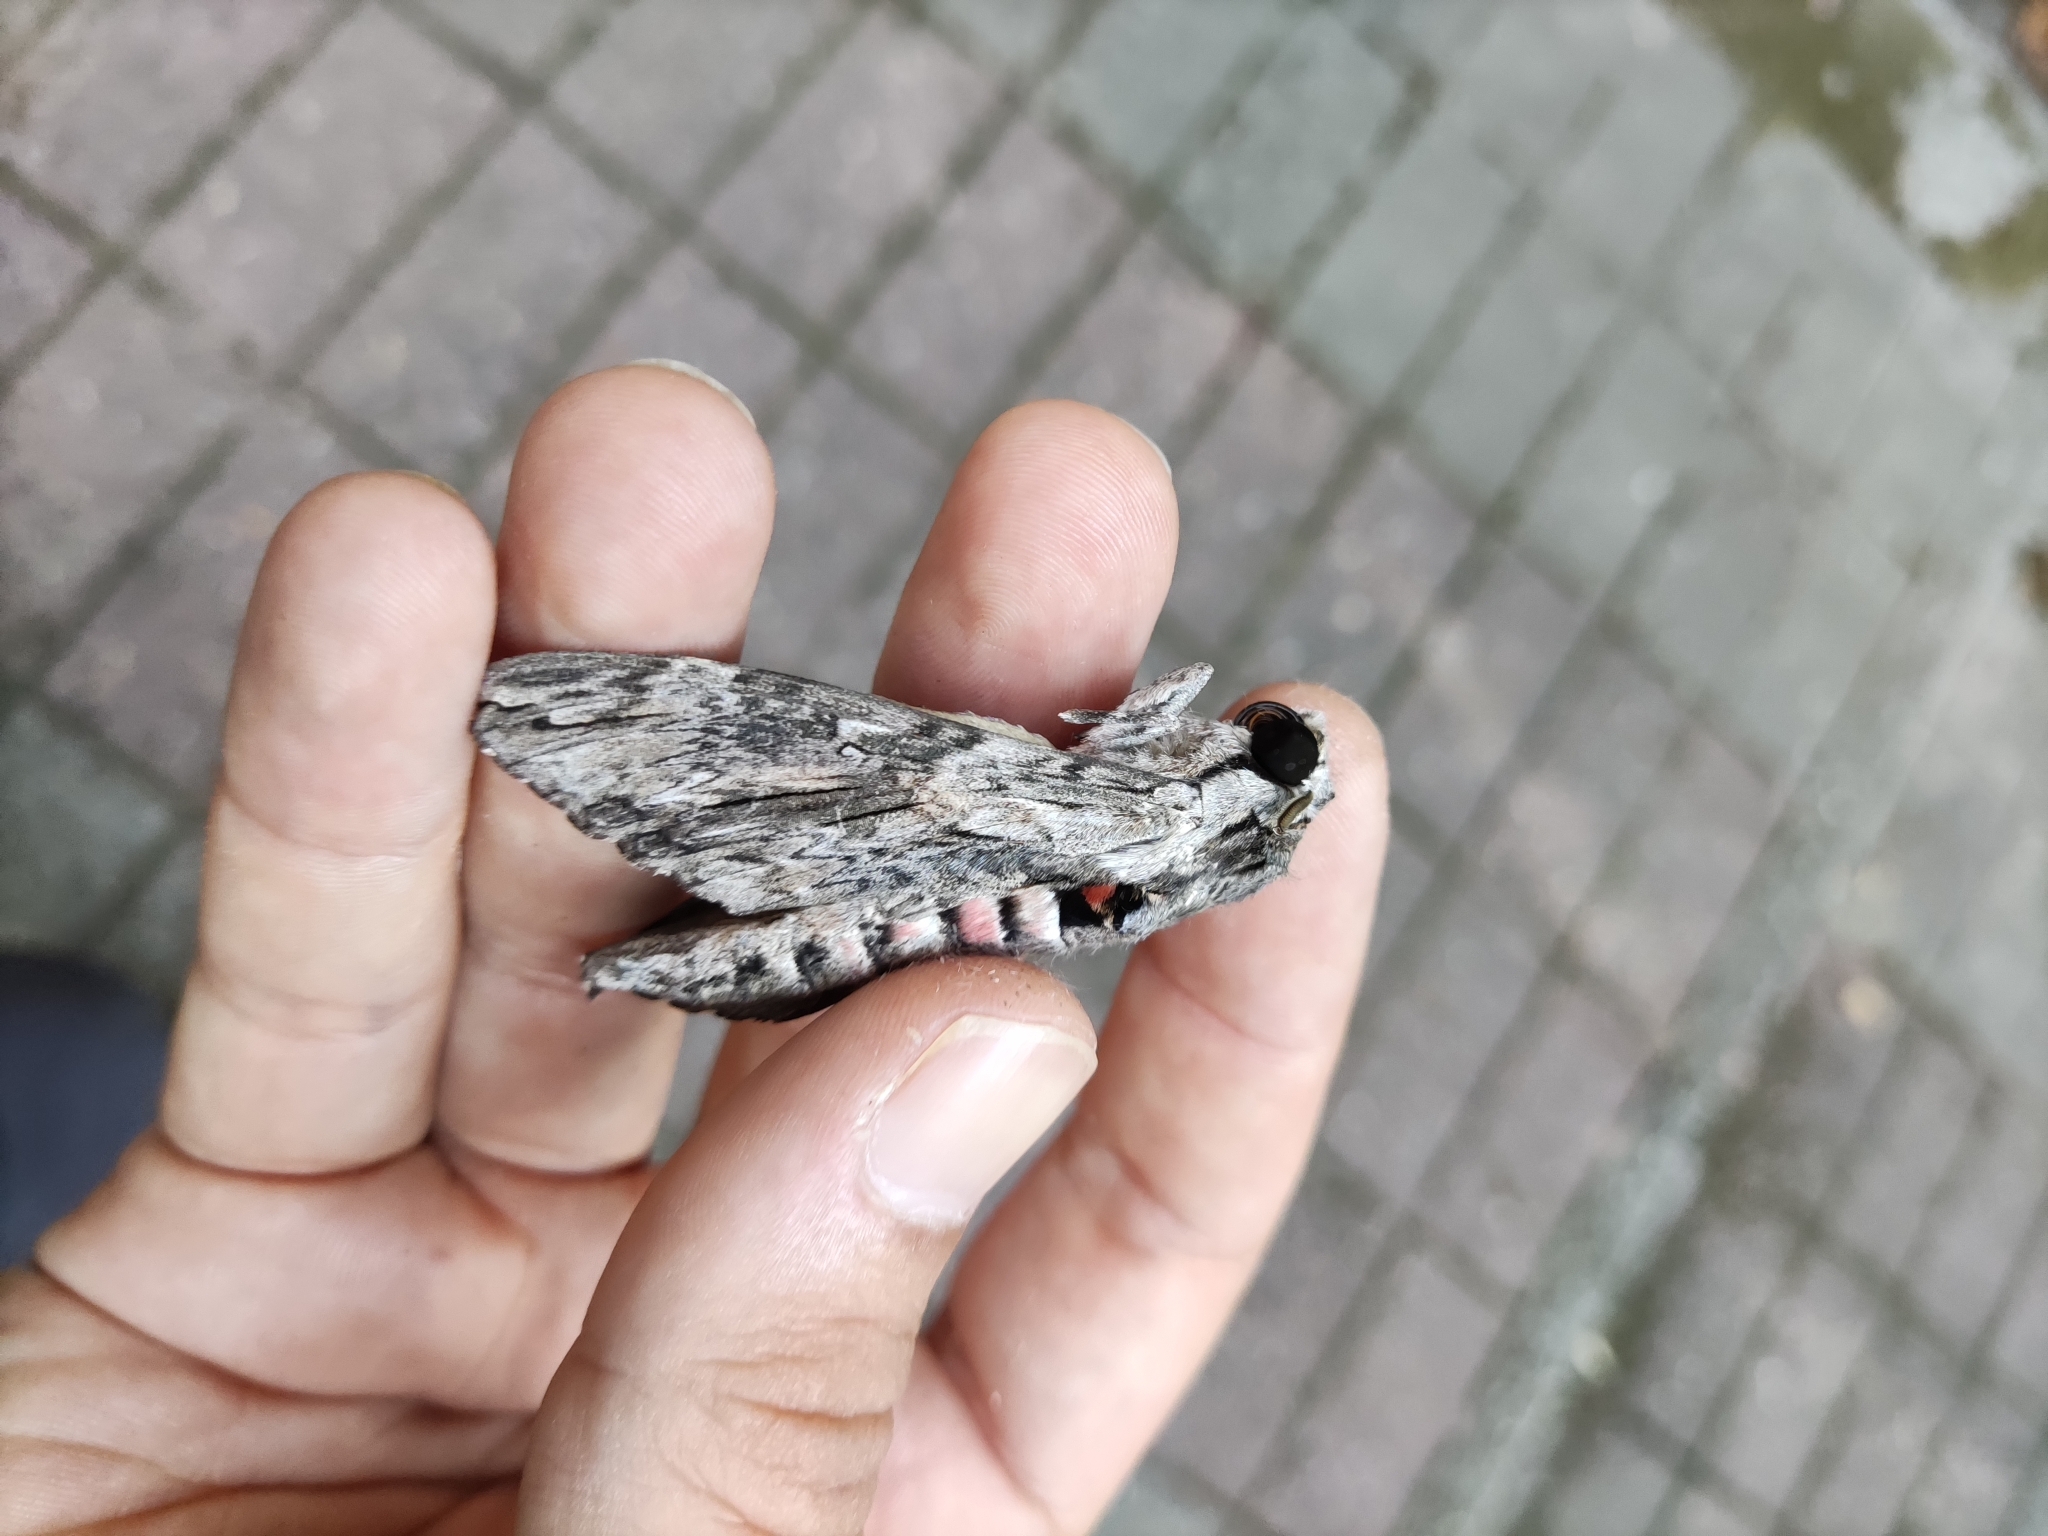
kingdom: Animalia
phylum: Arthropoda
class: Insecta
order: Lepidoptera
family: Sphingidae
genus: Agrius
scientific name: Agrius convolvuli
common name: Convolvulus hawkmoth
